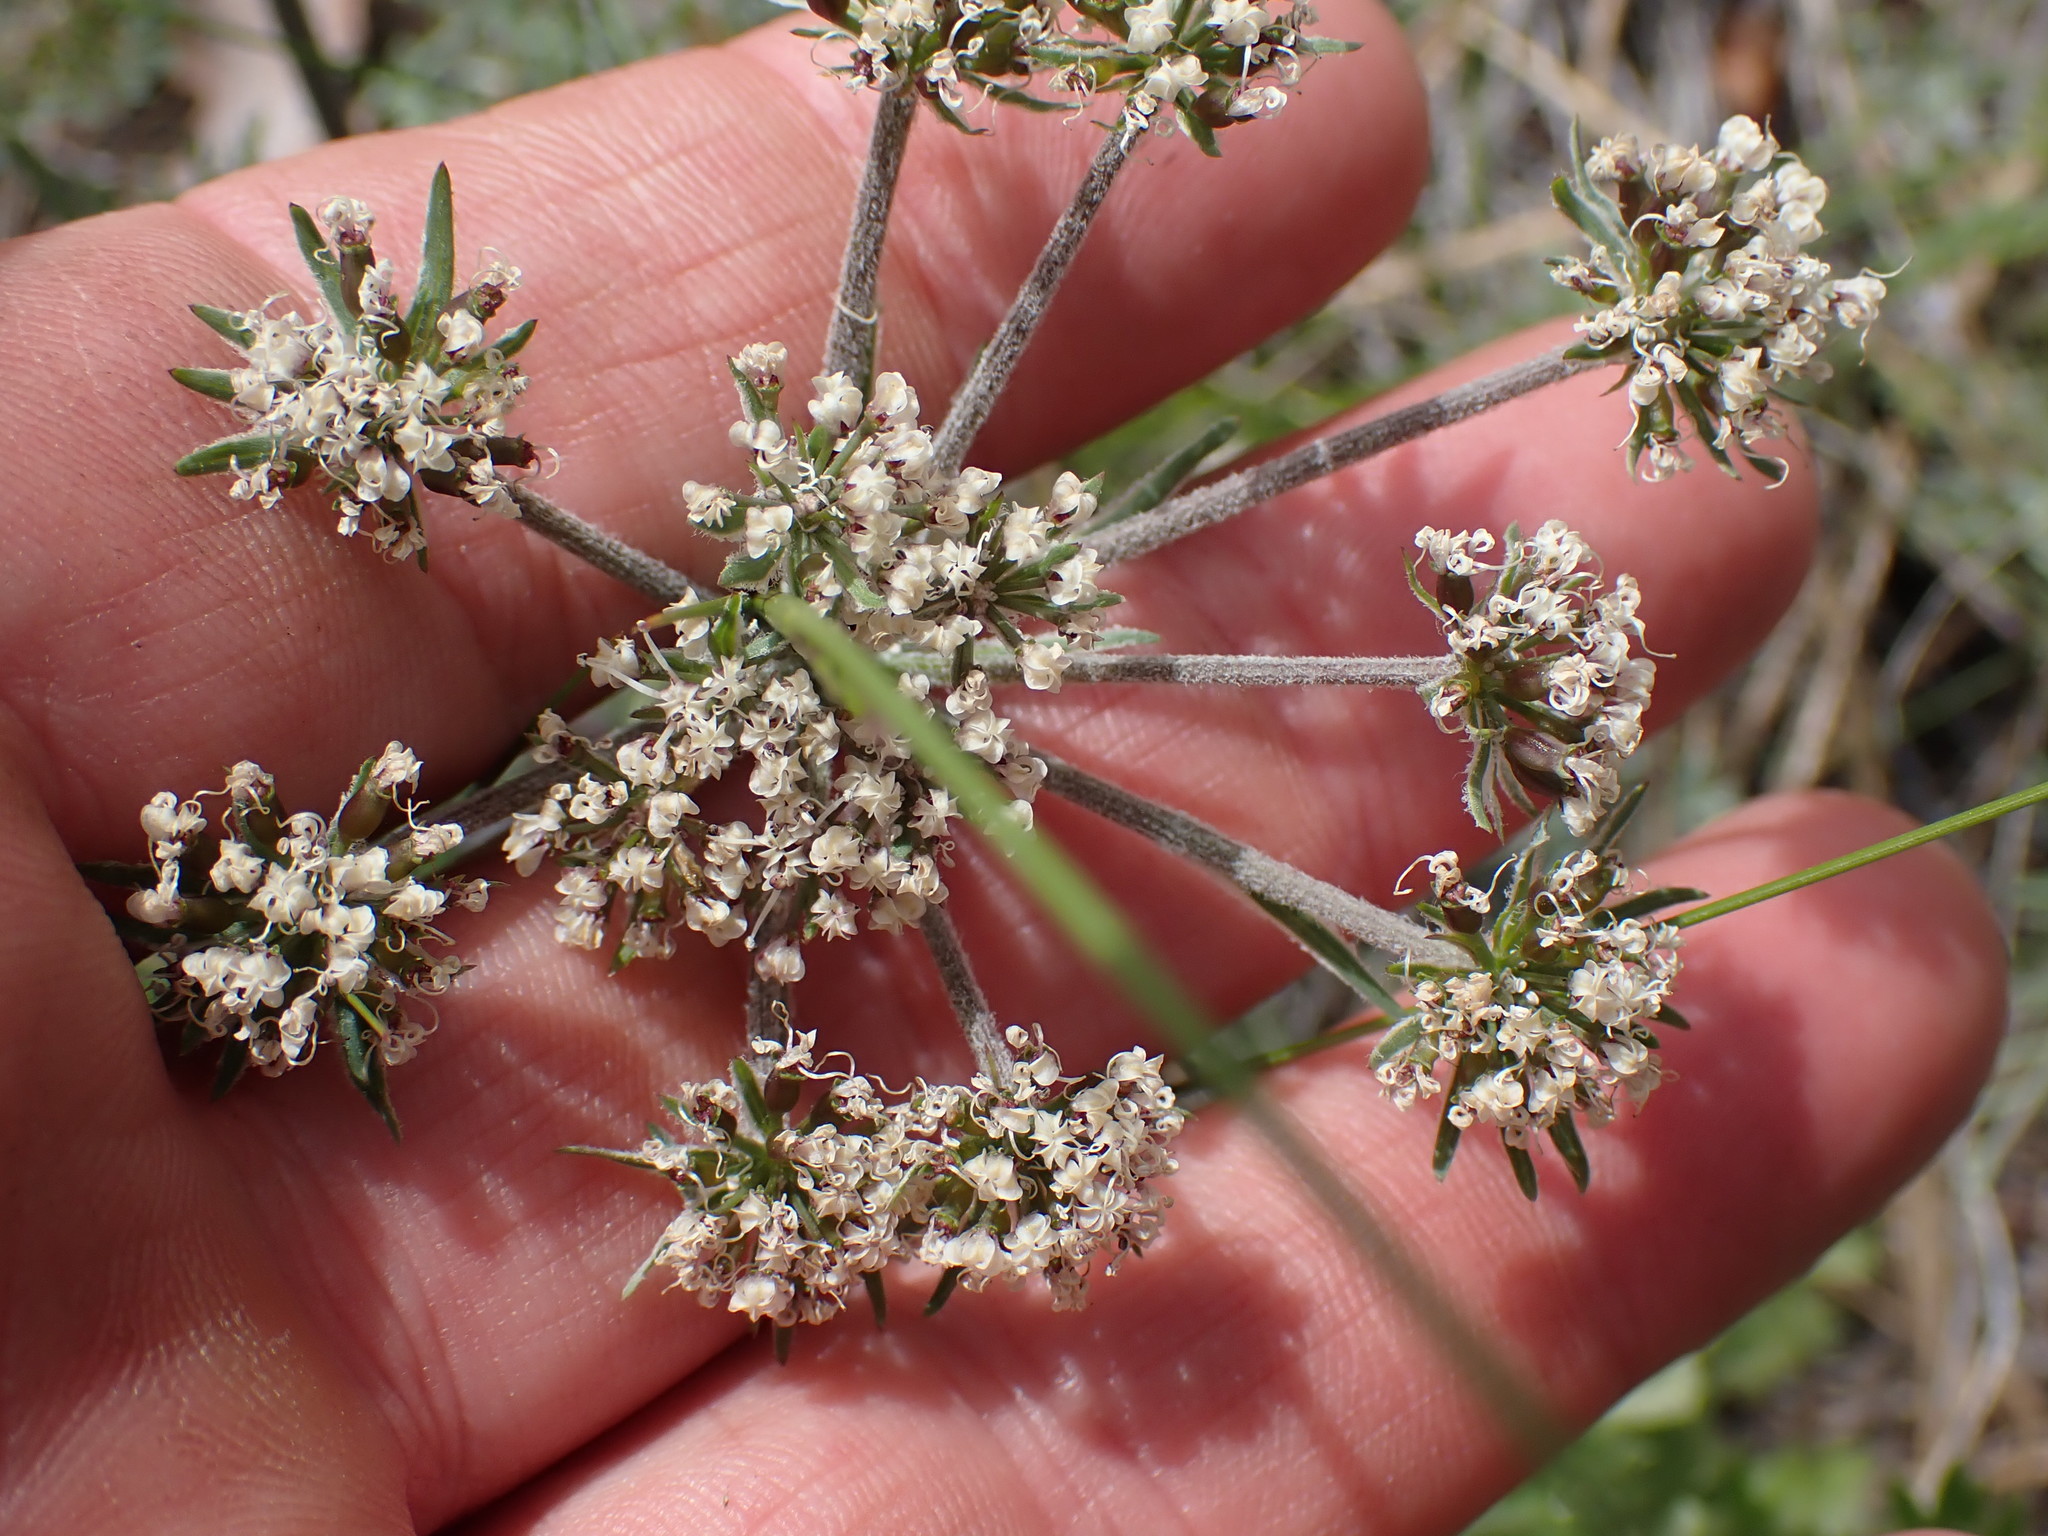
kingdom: Plantae
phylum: Tracheophyta
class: Magnoliopsida
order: Apiales
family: Apiaceae
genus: Lomatium
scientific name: Lomatium macrocarpum
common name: Big-seed biscuitroot
